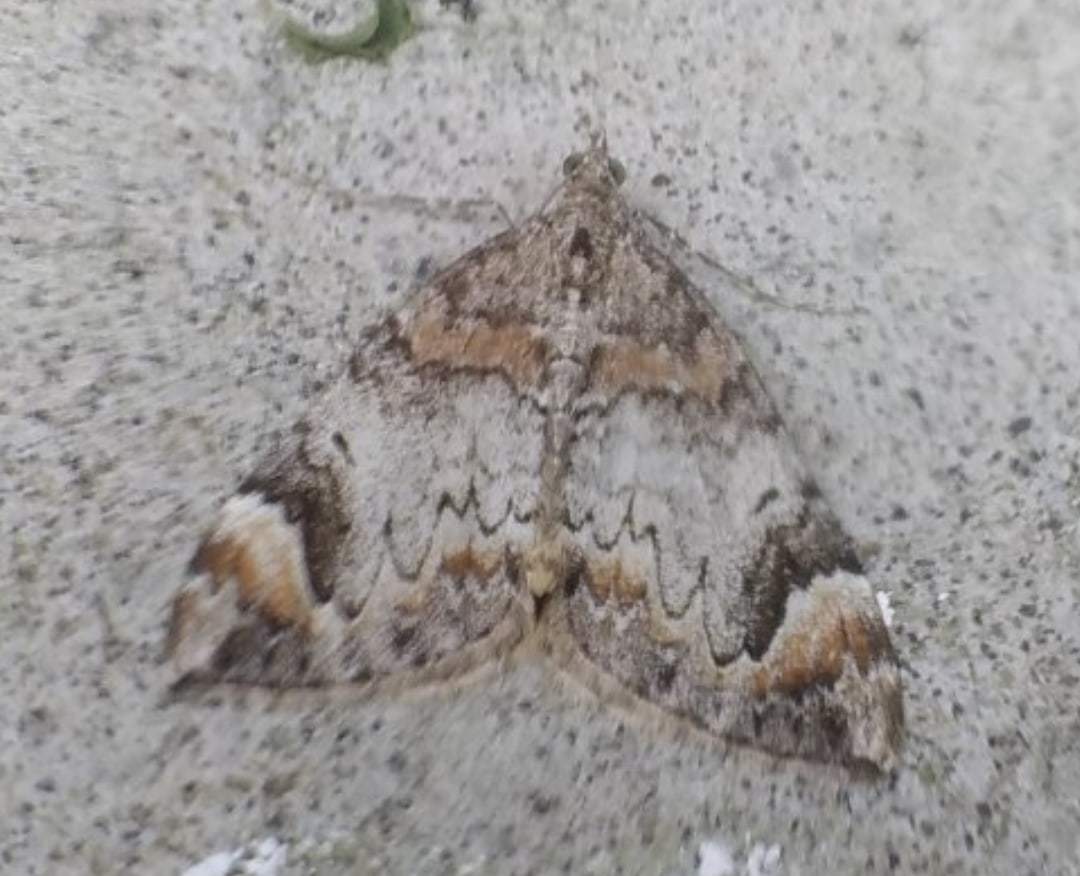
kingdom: Animalia
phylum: Arthropoda
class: Insecta
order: Lepidoptera
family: Geometridae
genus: Dysstroma
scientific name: Dysstroma truncata
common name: Common marbled carpet
